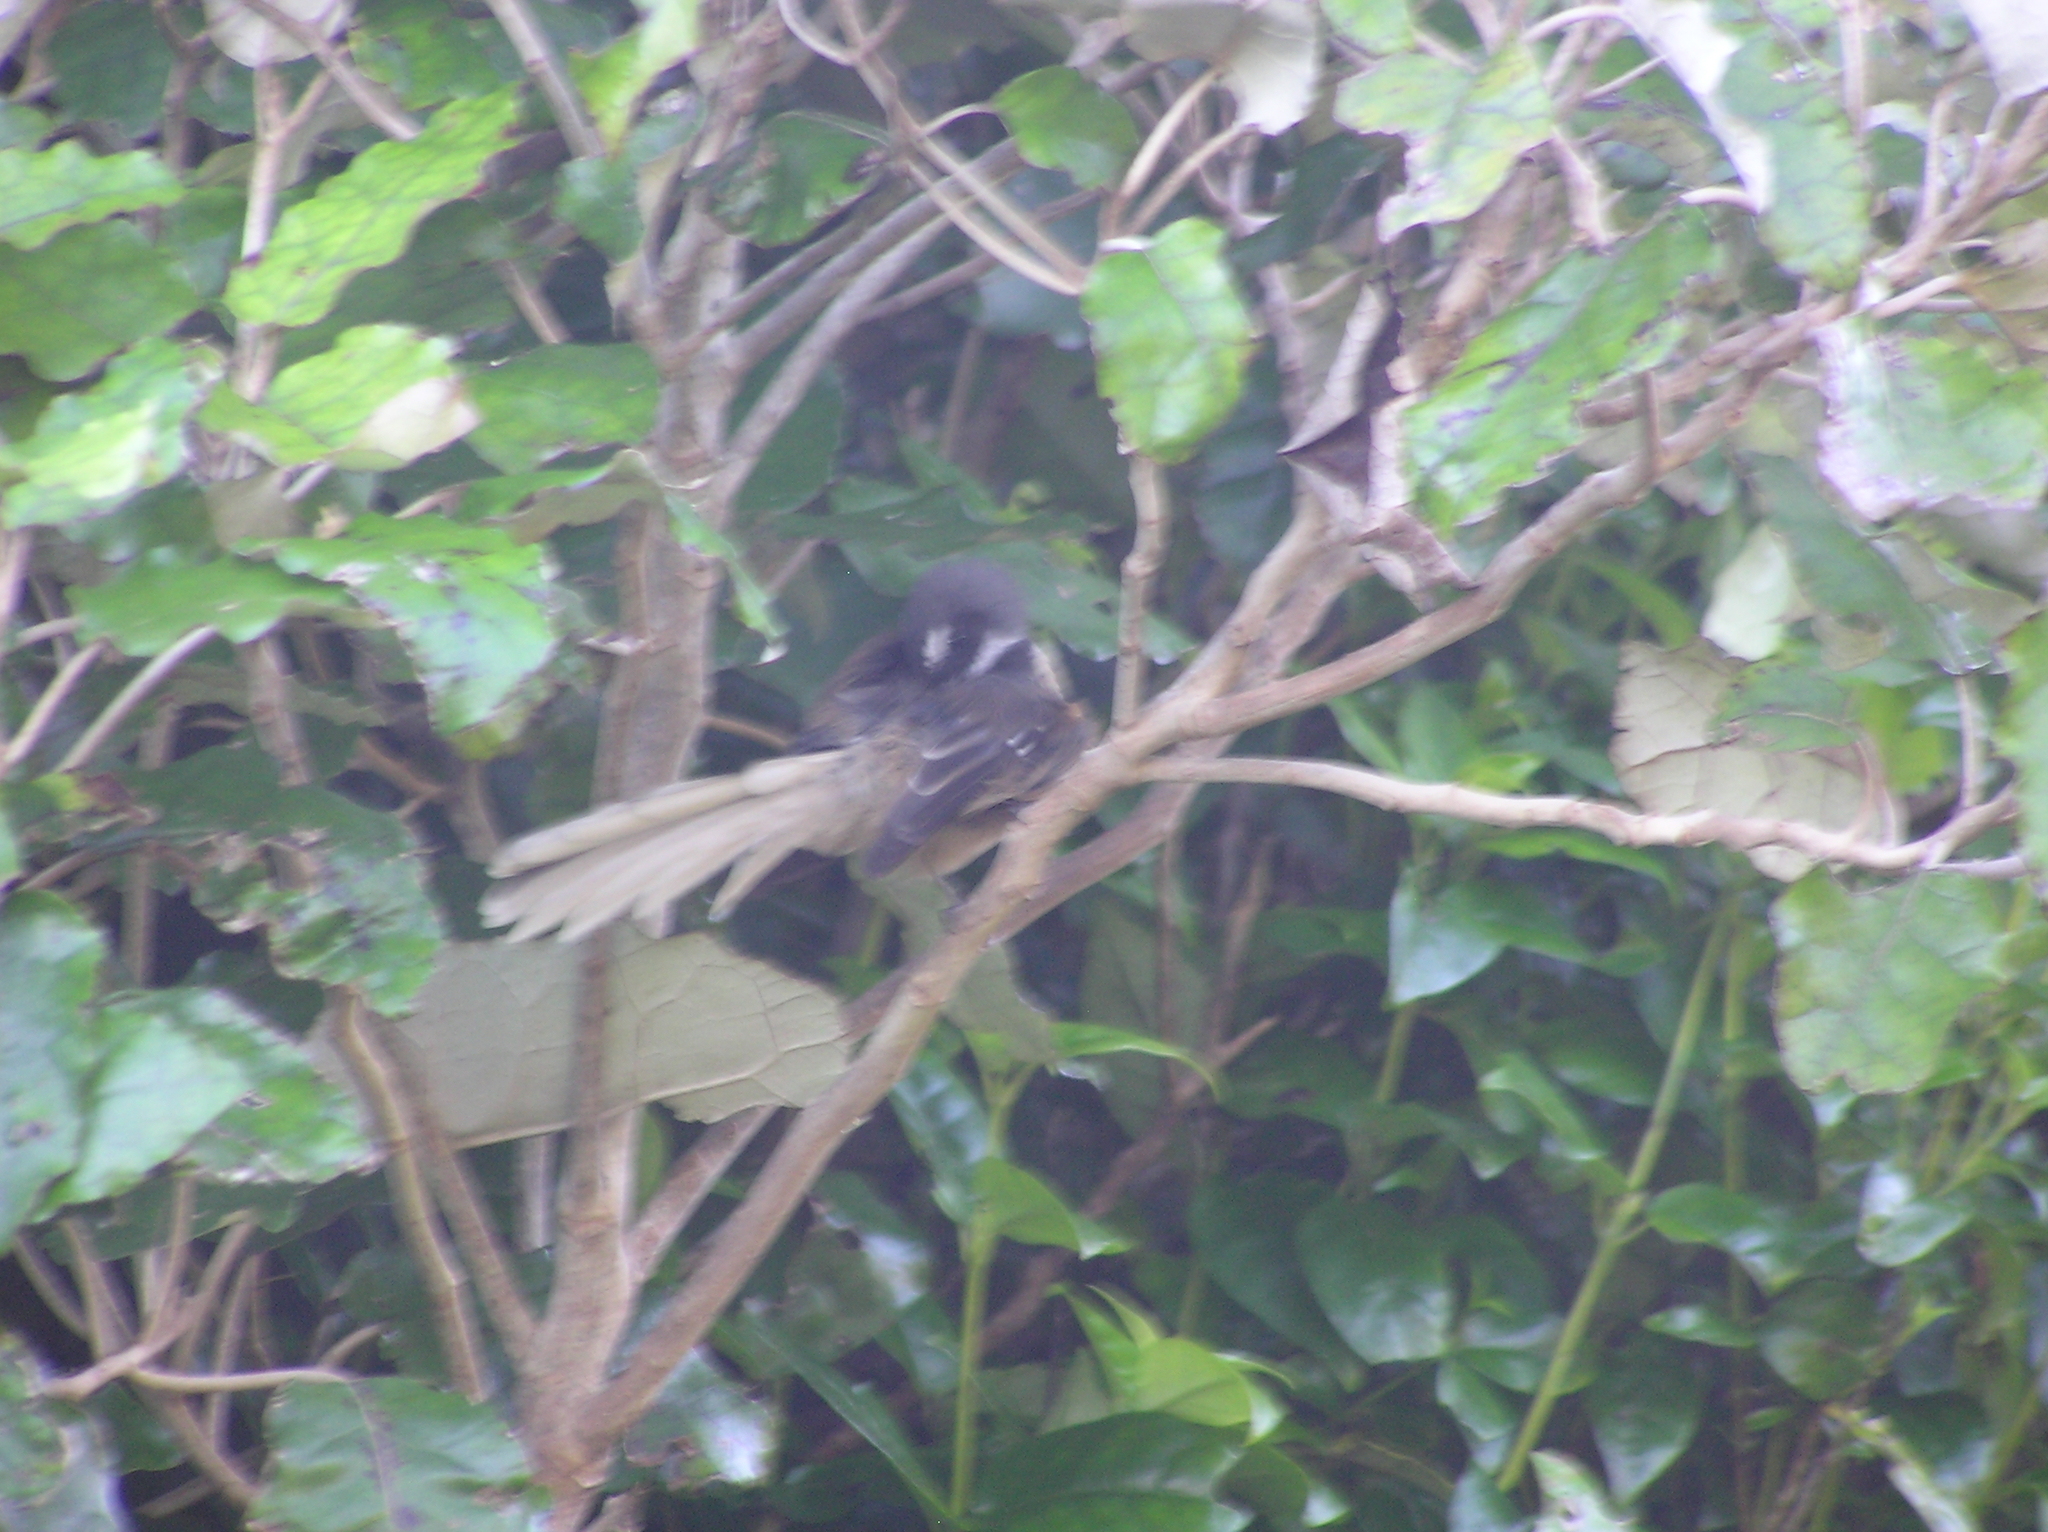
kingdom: Animalia
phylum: Chordata
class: Aves
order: Passeriformes
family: Rhipiduridae
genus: Rhipidura
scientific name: Rhipidura fuliginosa
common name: New zealand fantail
